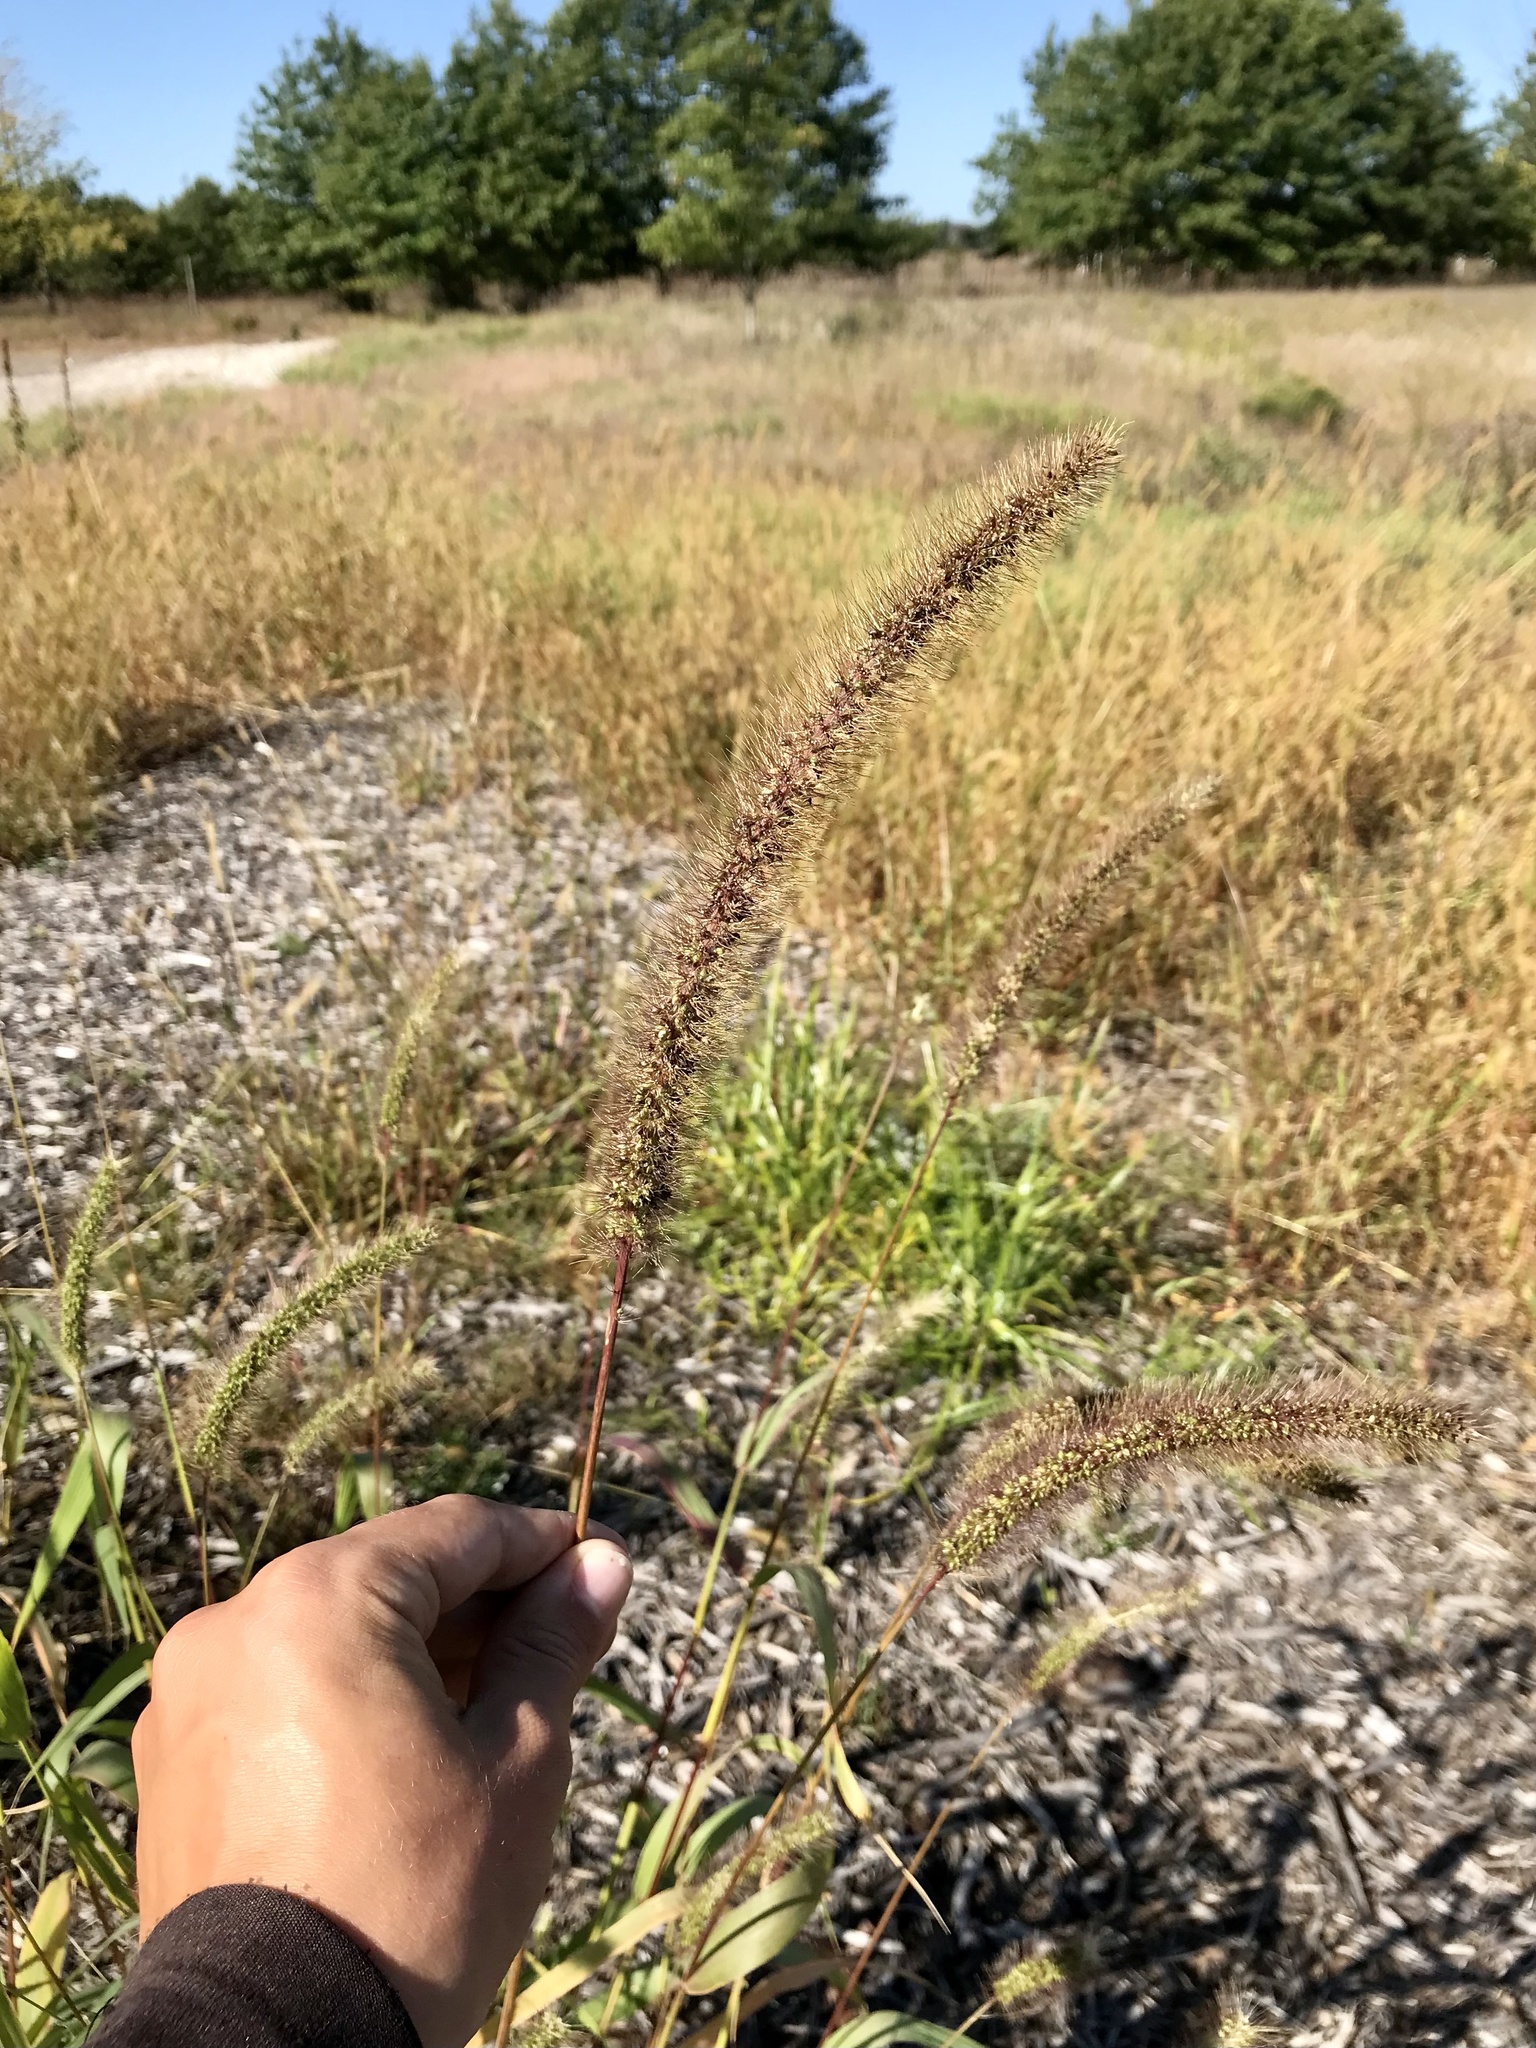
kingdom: Plantae
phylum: Tracheophyta
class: Liliopsida
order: Poales
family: Poaceae
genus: Setaria
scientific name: Setaria faberi
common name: Nodding bristle-grass
